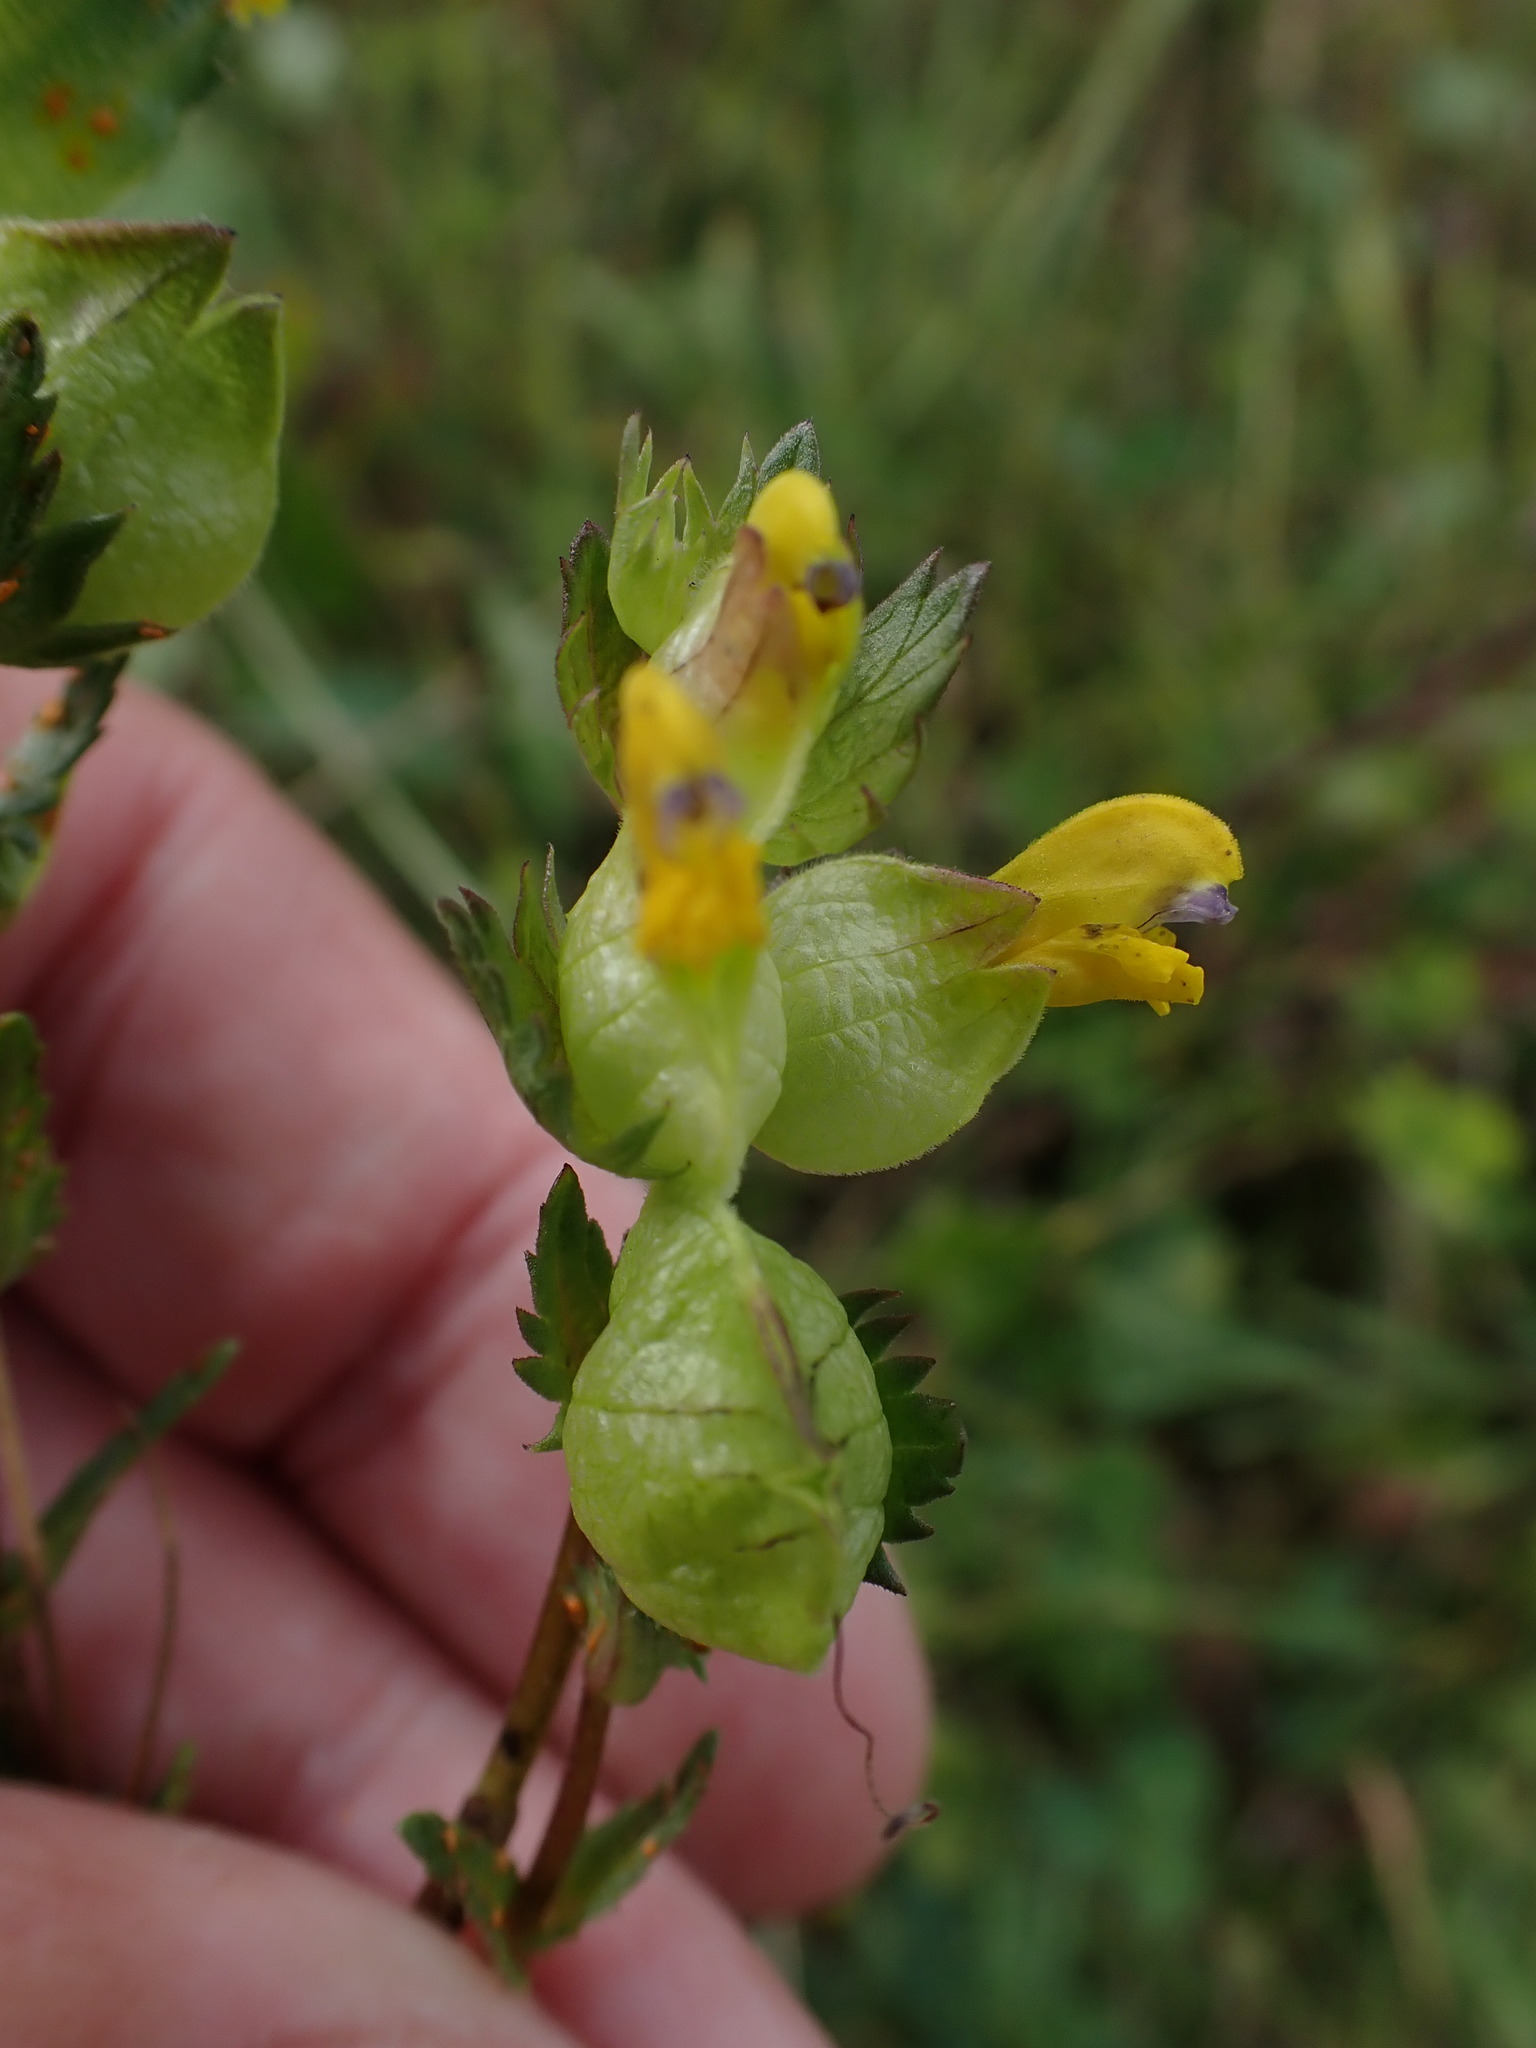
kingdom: Plantae
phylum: Tracheophyta
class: Magnoliopsida
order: Lamiales
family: Orobanchaceae
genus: Rhinanthus
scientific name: Rhinanthus minor
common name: Yellow-rattle
